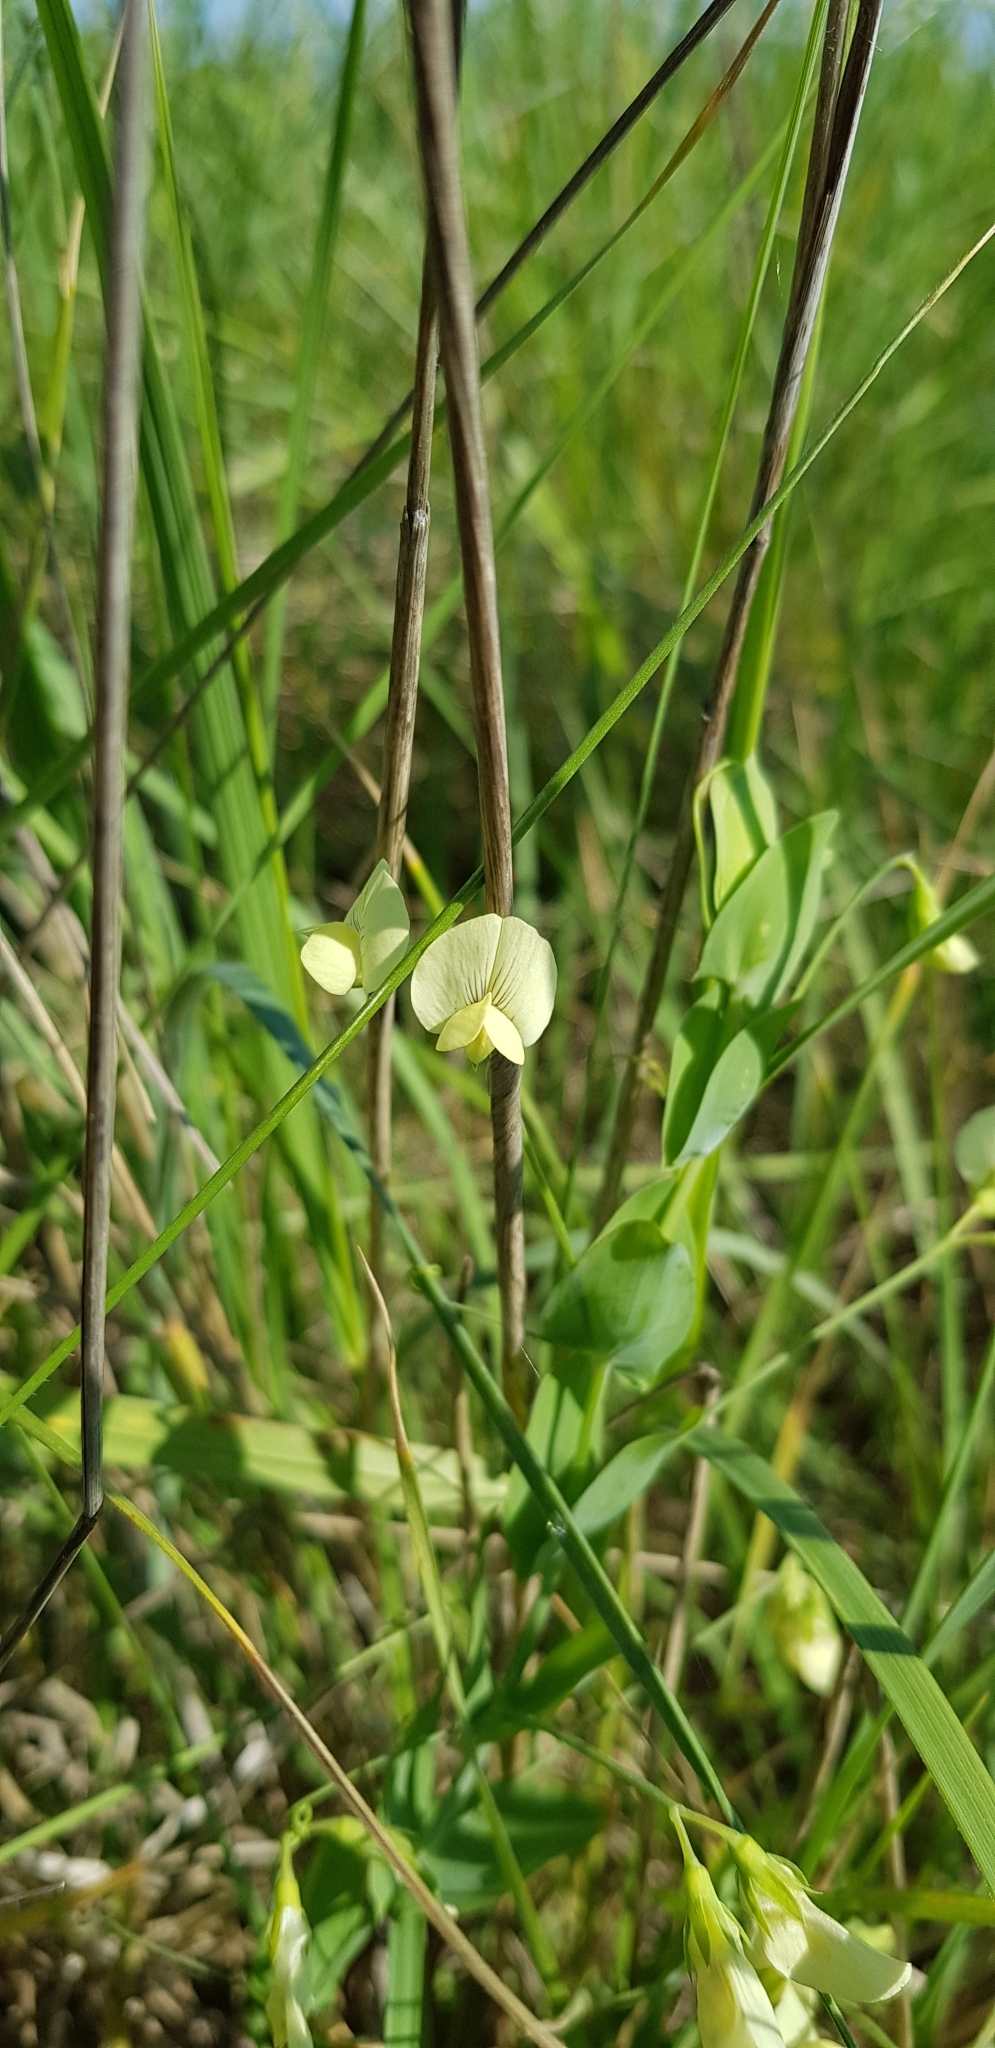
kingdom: Plantae
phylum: Tracheophyta
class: Magnoliopsida
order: Fabales
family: Fabaceae
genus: Lathyrus
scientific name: Lathyrus aphaca
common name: Yellow vetchling
